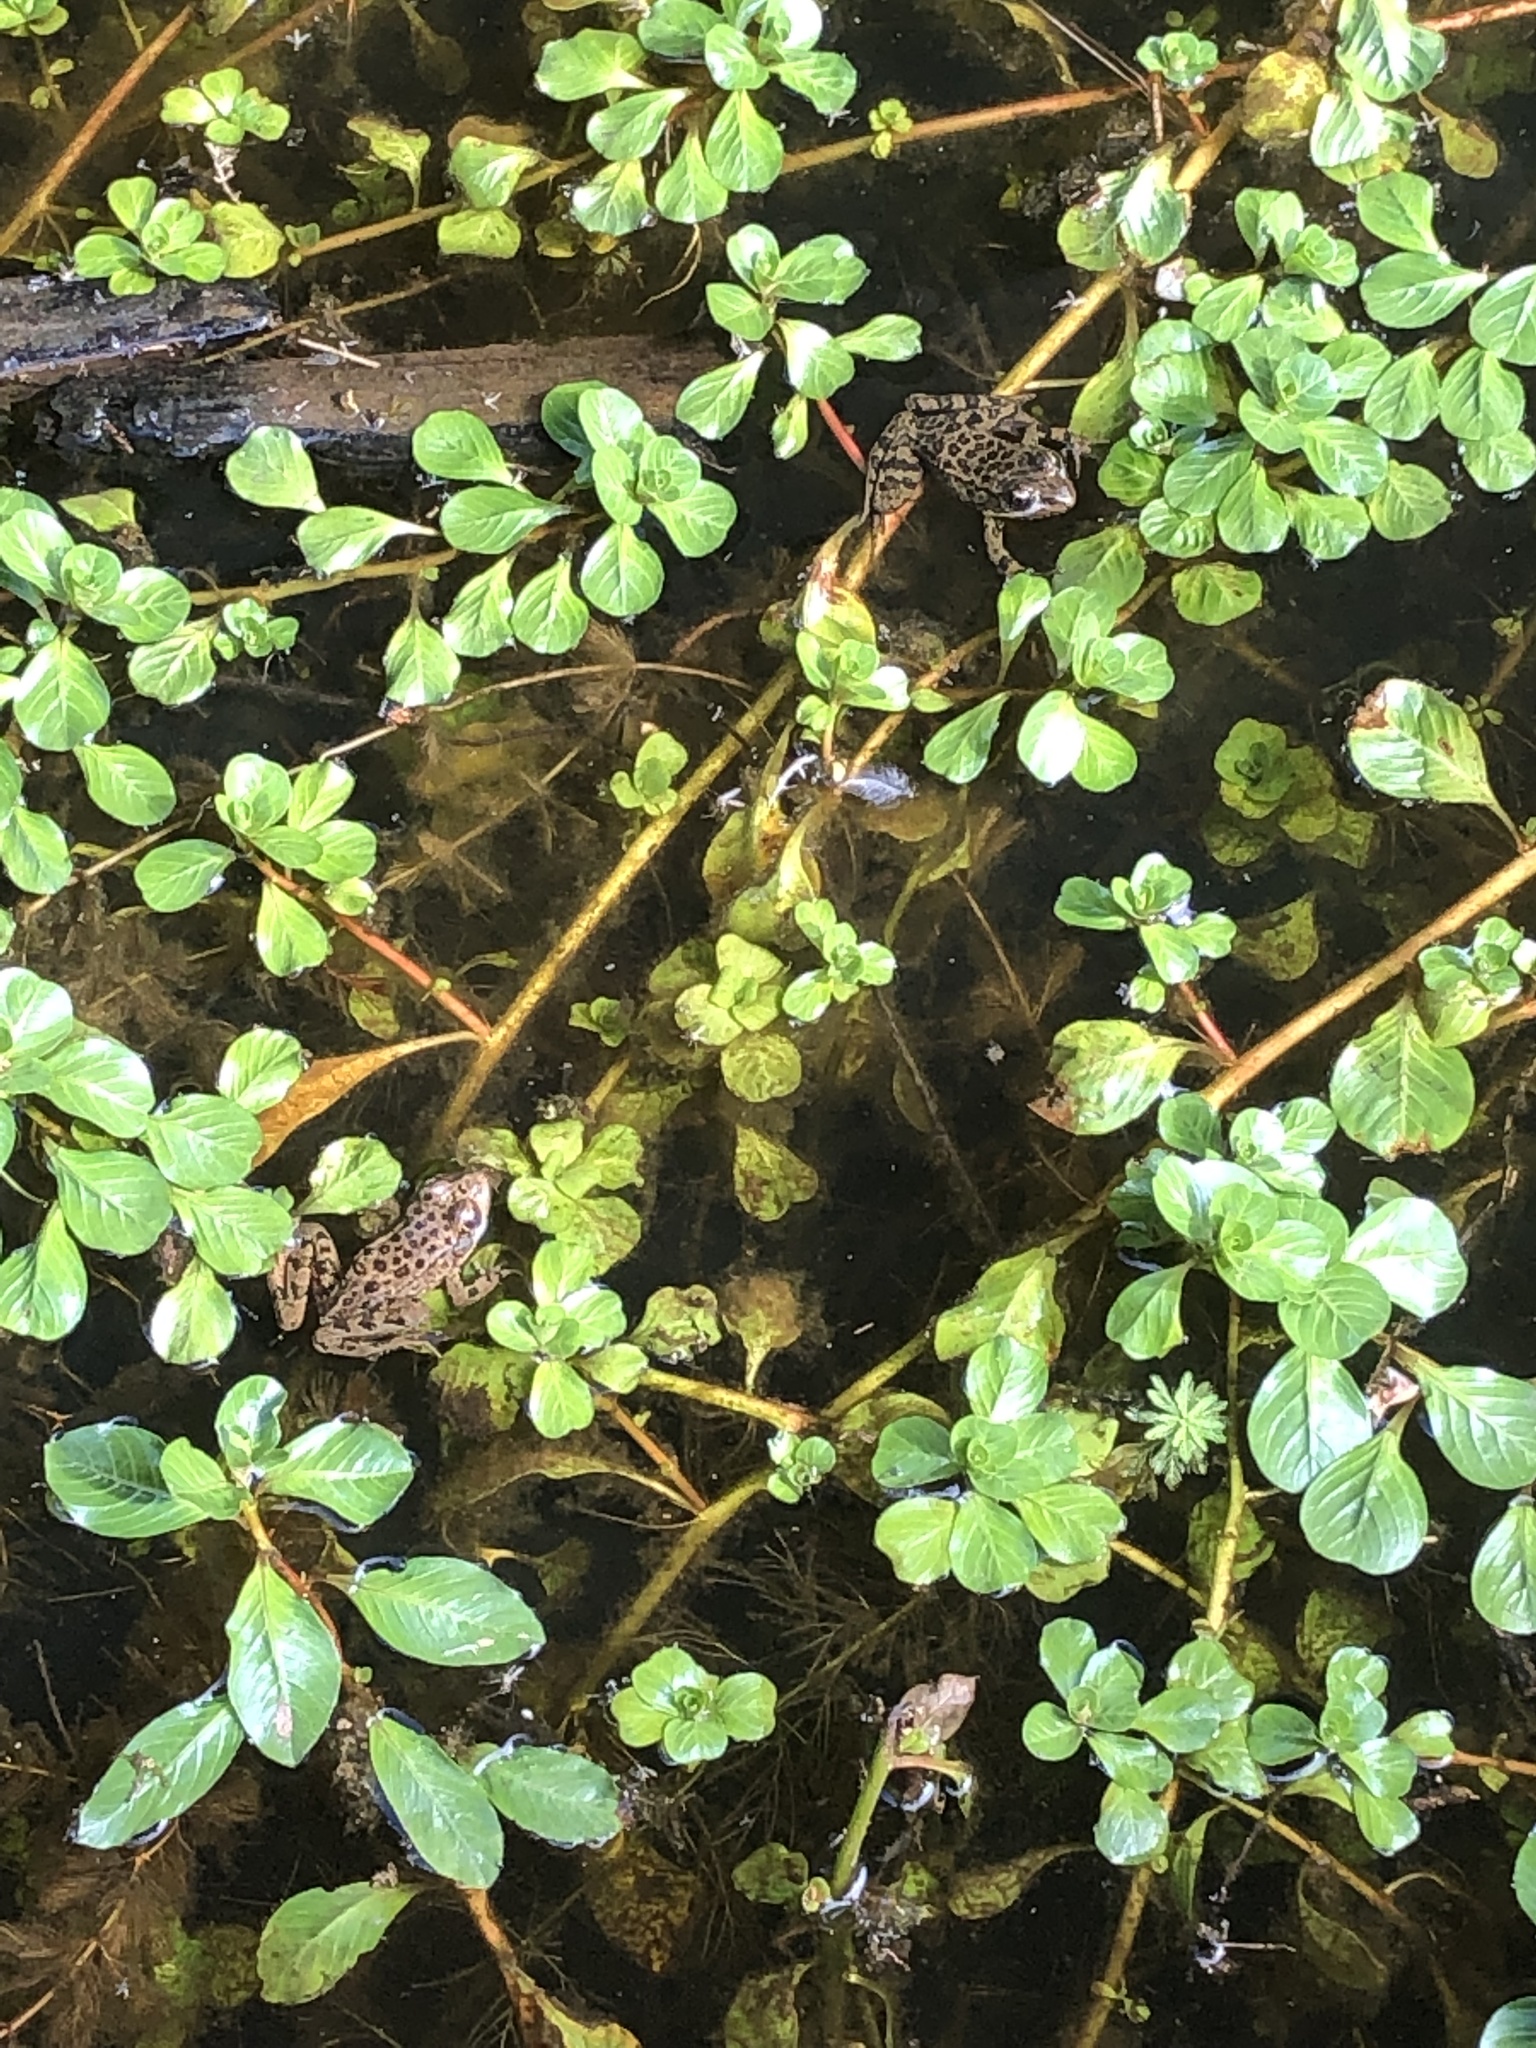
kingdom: Animalia
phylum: Chordata
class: Amphibia
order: Anura
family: Ranidae
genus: Rana
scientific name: Rana draytonii
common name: California red-legged frog
